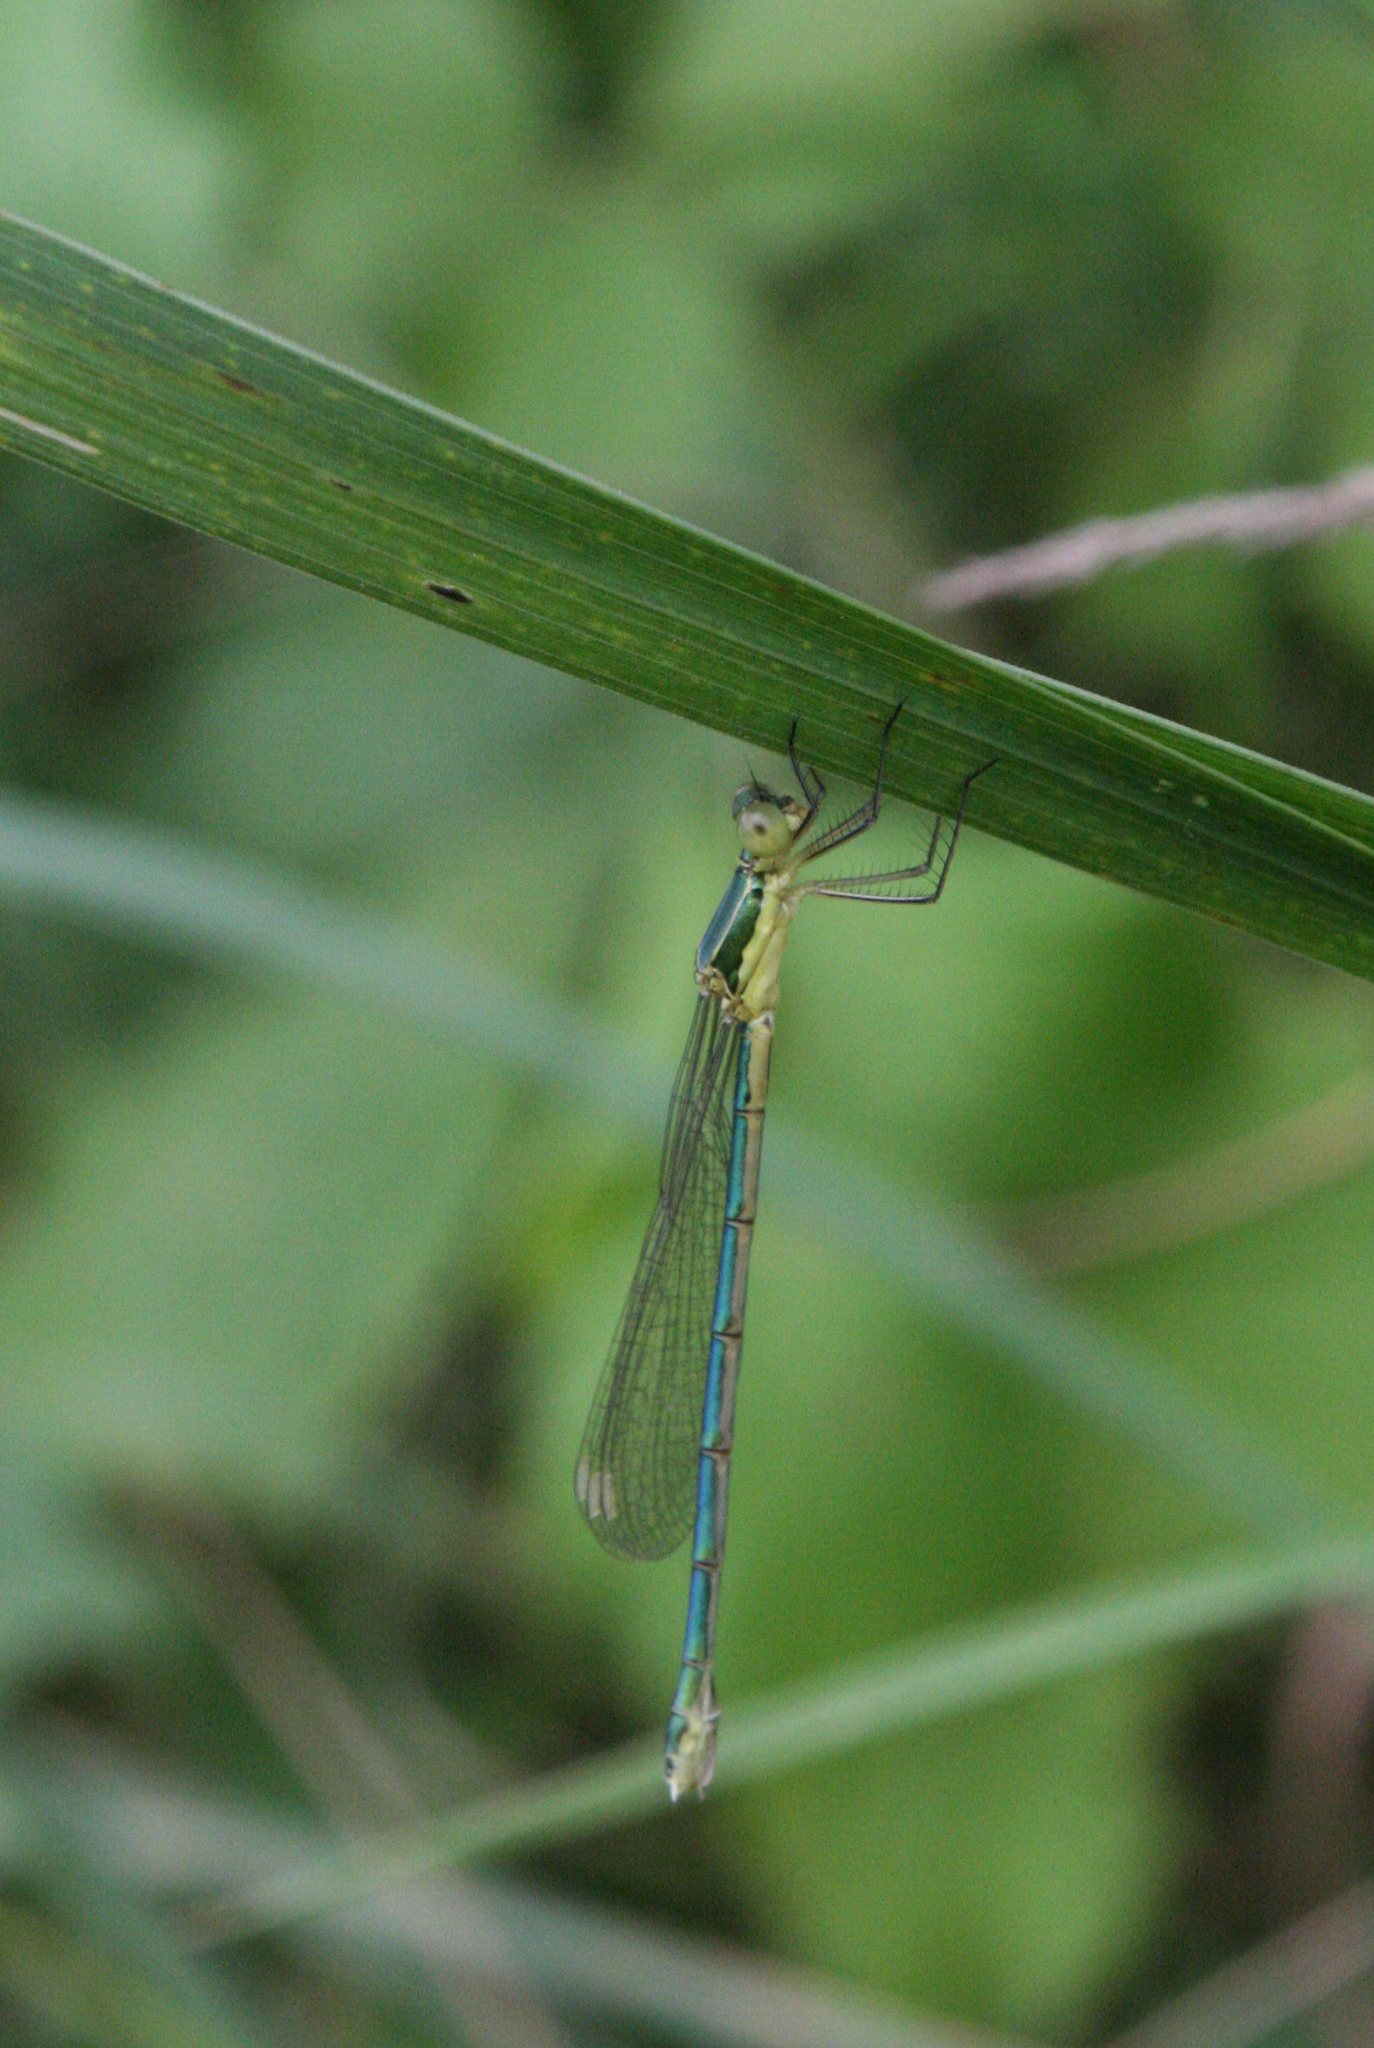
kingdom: Animalia
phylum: Arthropoda
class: Insecta
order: Odonata
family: Lestidae
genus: Lestes
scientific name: Lestes virens
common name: Small emerald spreadwing
